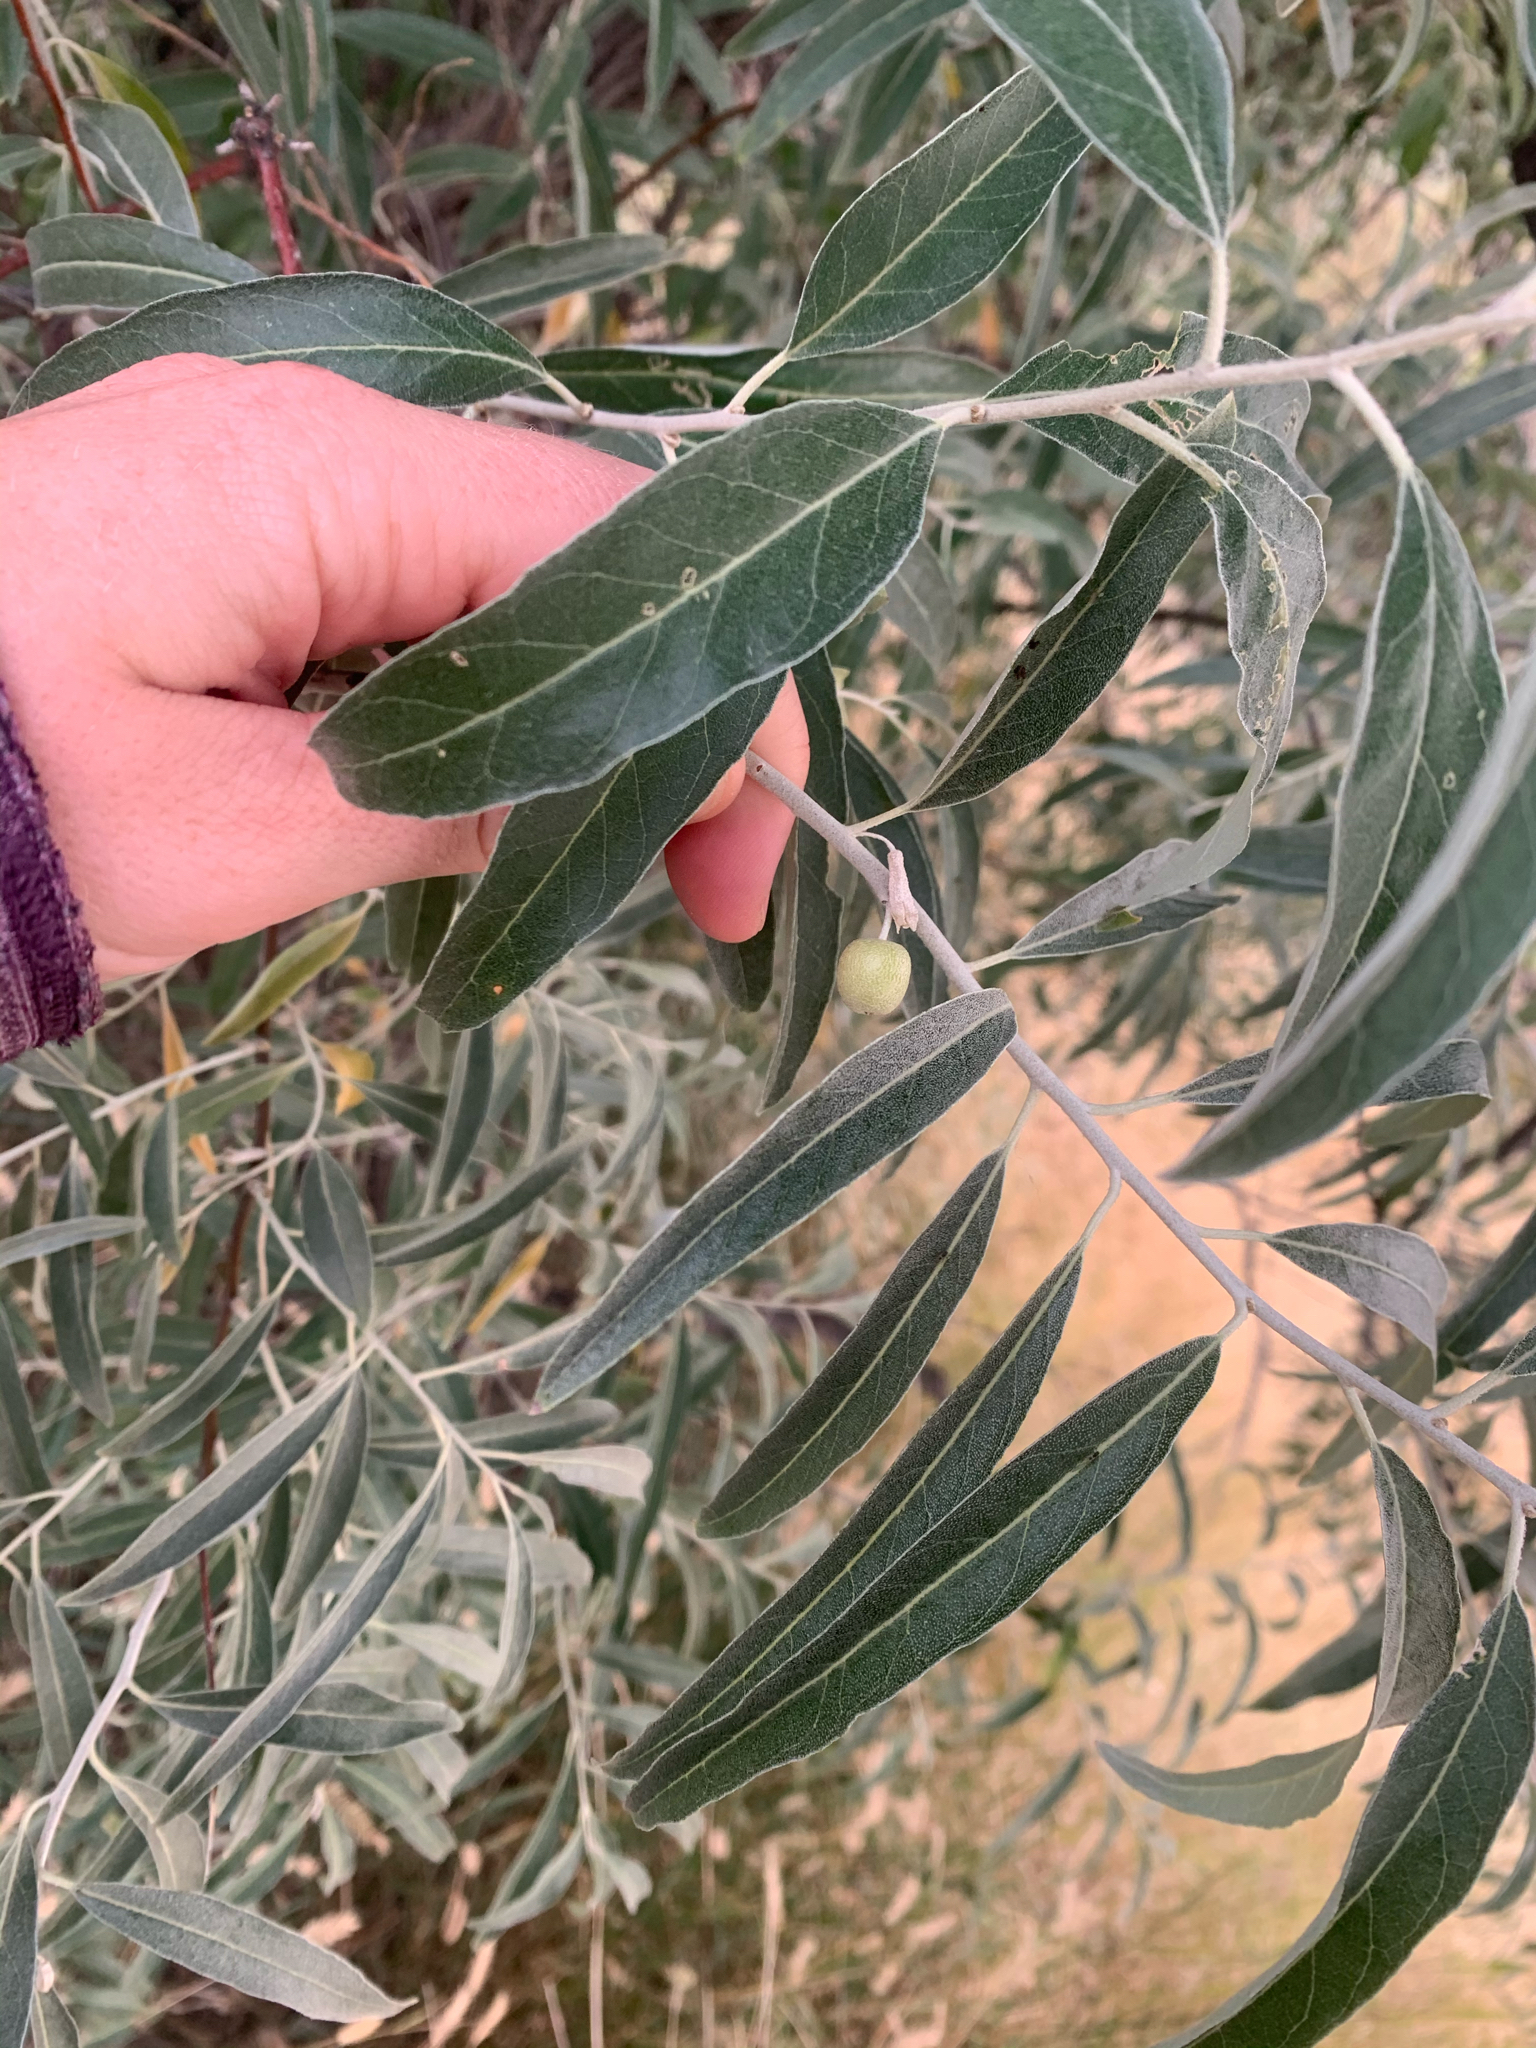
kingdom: Plantae
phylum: Tracheophyta
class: Magnoliopsida
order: Rosales
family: Elaeagnaceae
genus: Elaeagnus
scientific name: Elaeagnus angustifolia
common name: Russian olive
